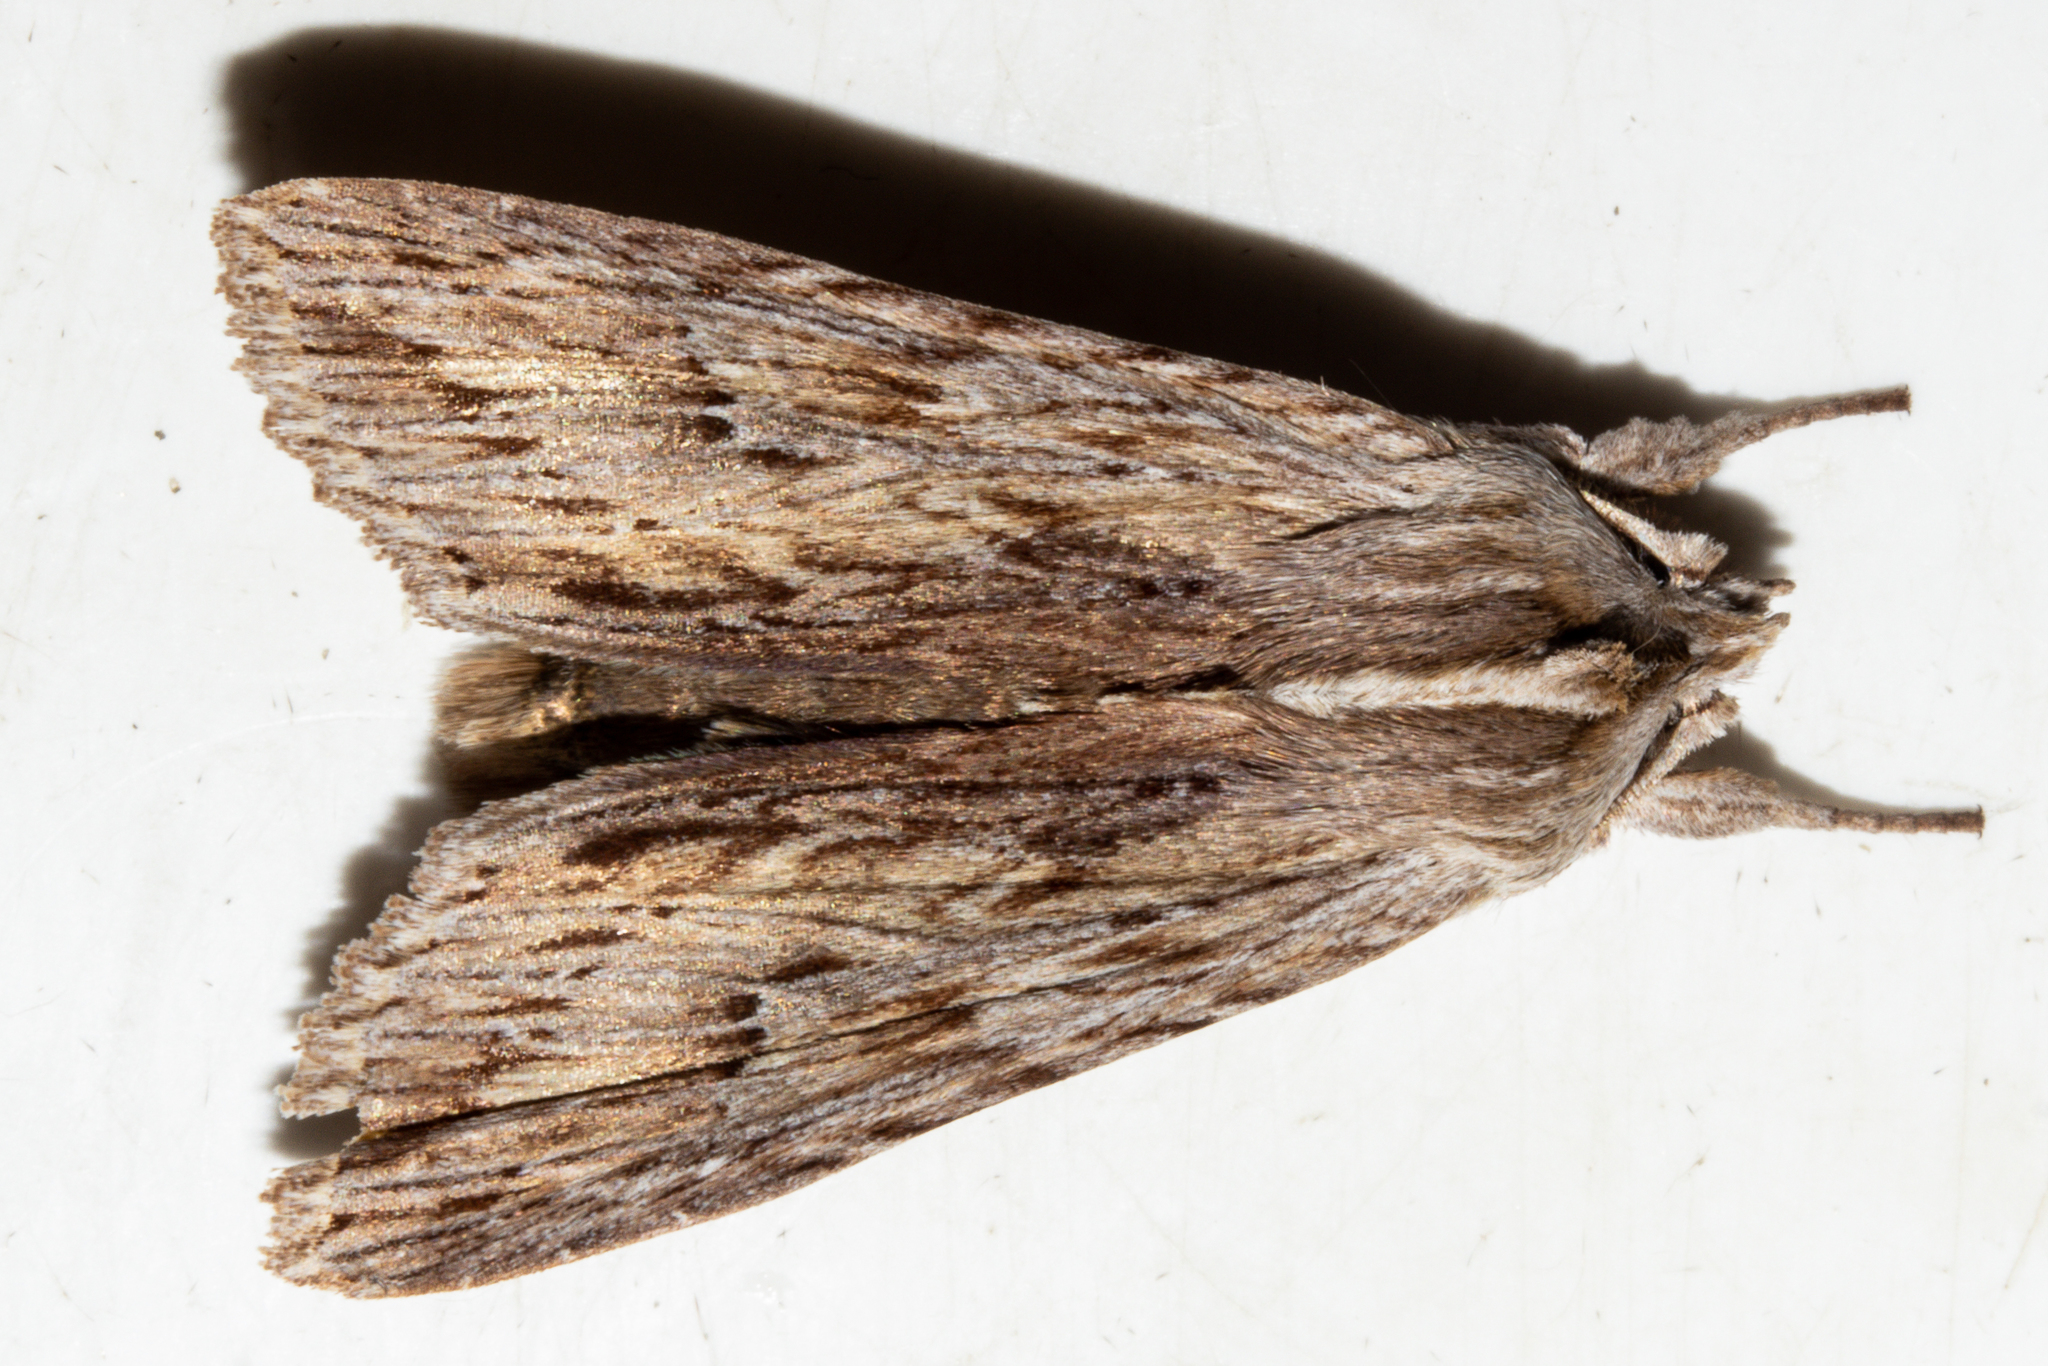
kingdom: Animalia
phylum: Arthropoda
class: Insecta
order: Lepidoptera
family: Noctuidae
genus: Physetica
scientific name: Physetica prionistis
